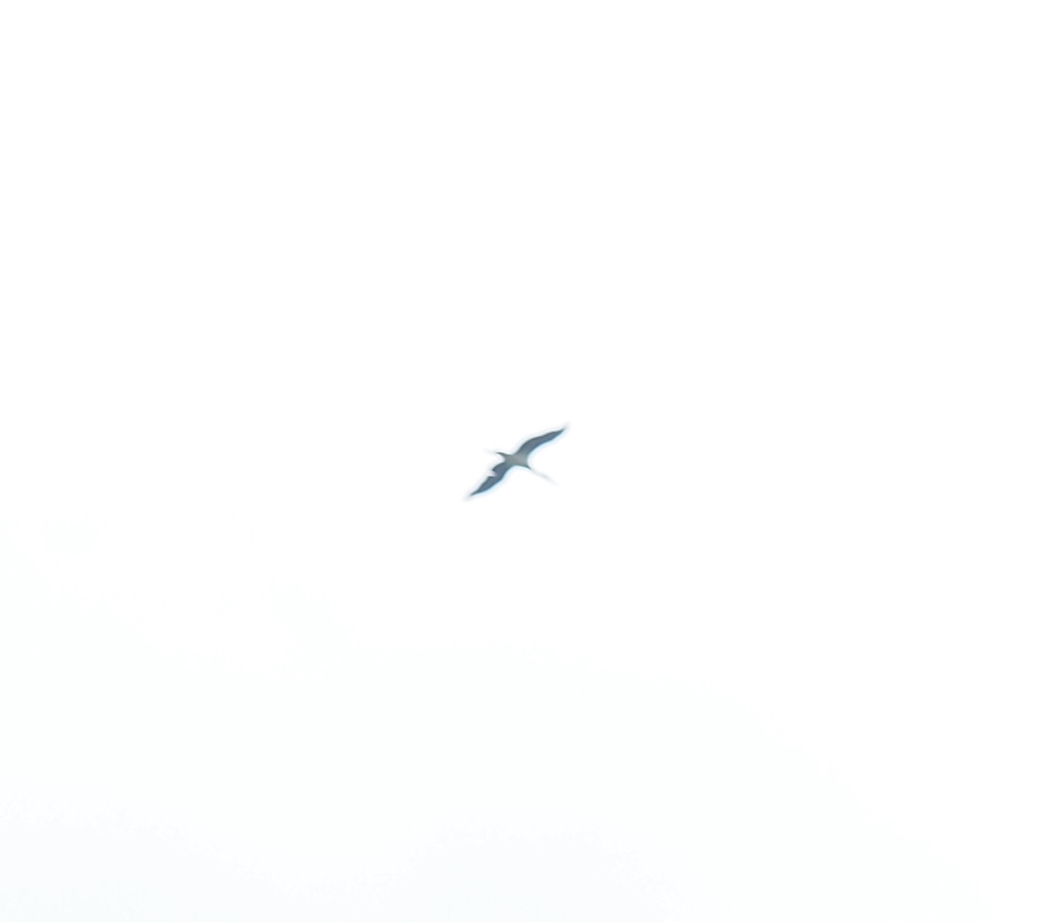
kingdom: Animalia
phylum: Chordata
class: Aves
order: Ciconiiformes
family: Ciconiidae
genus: Ciconia
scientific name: Ciconia nigra
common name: Black stork
